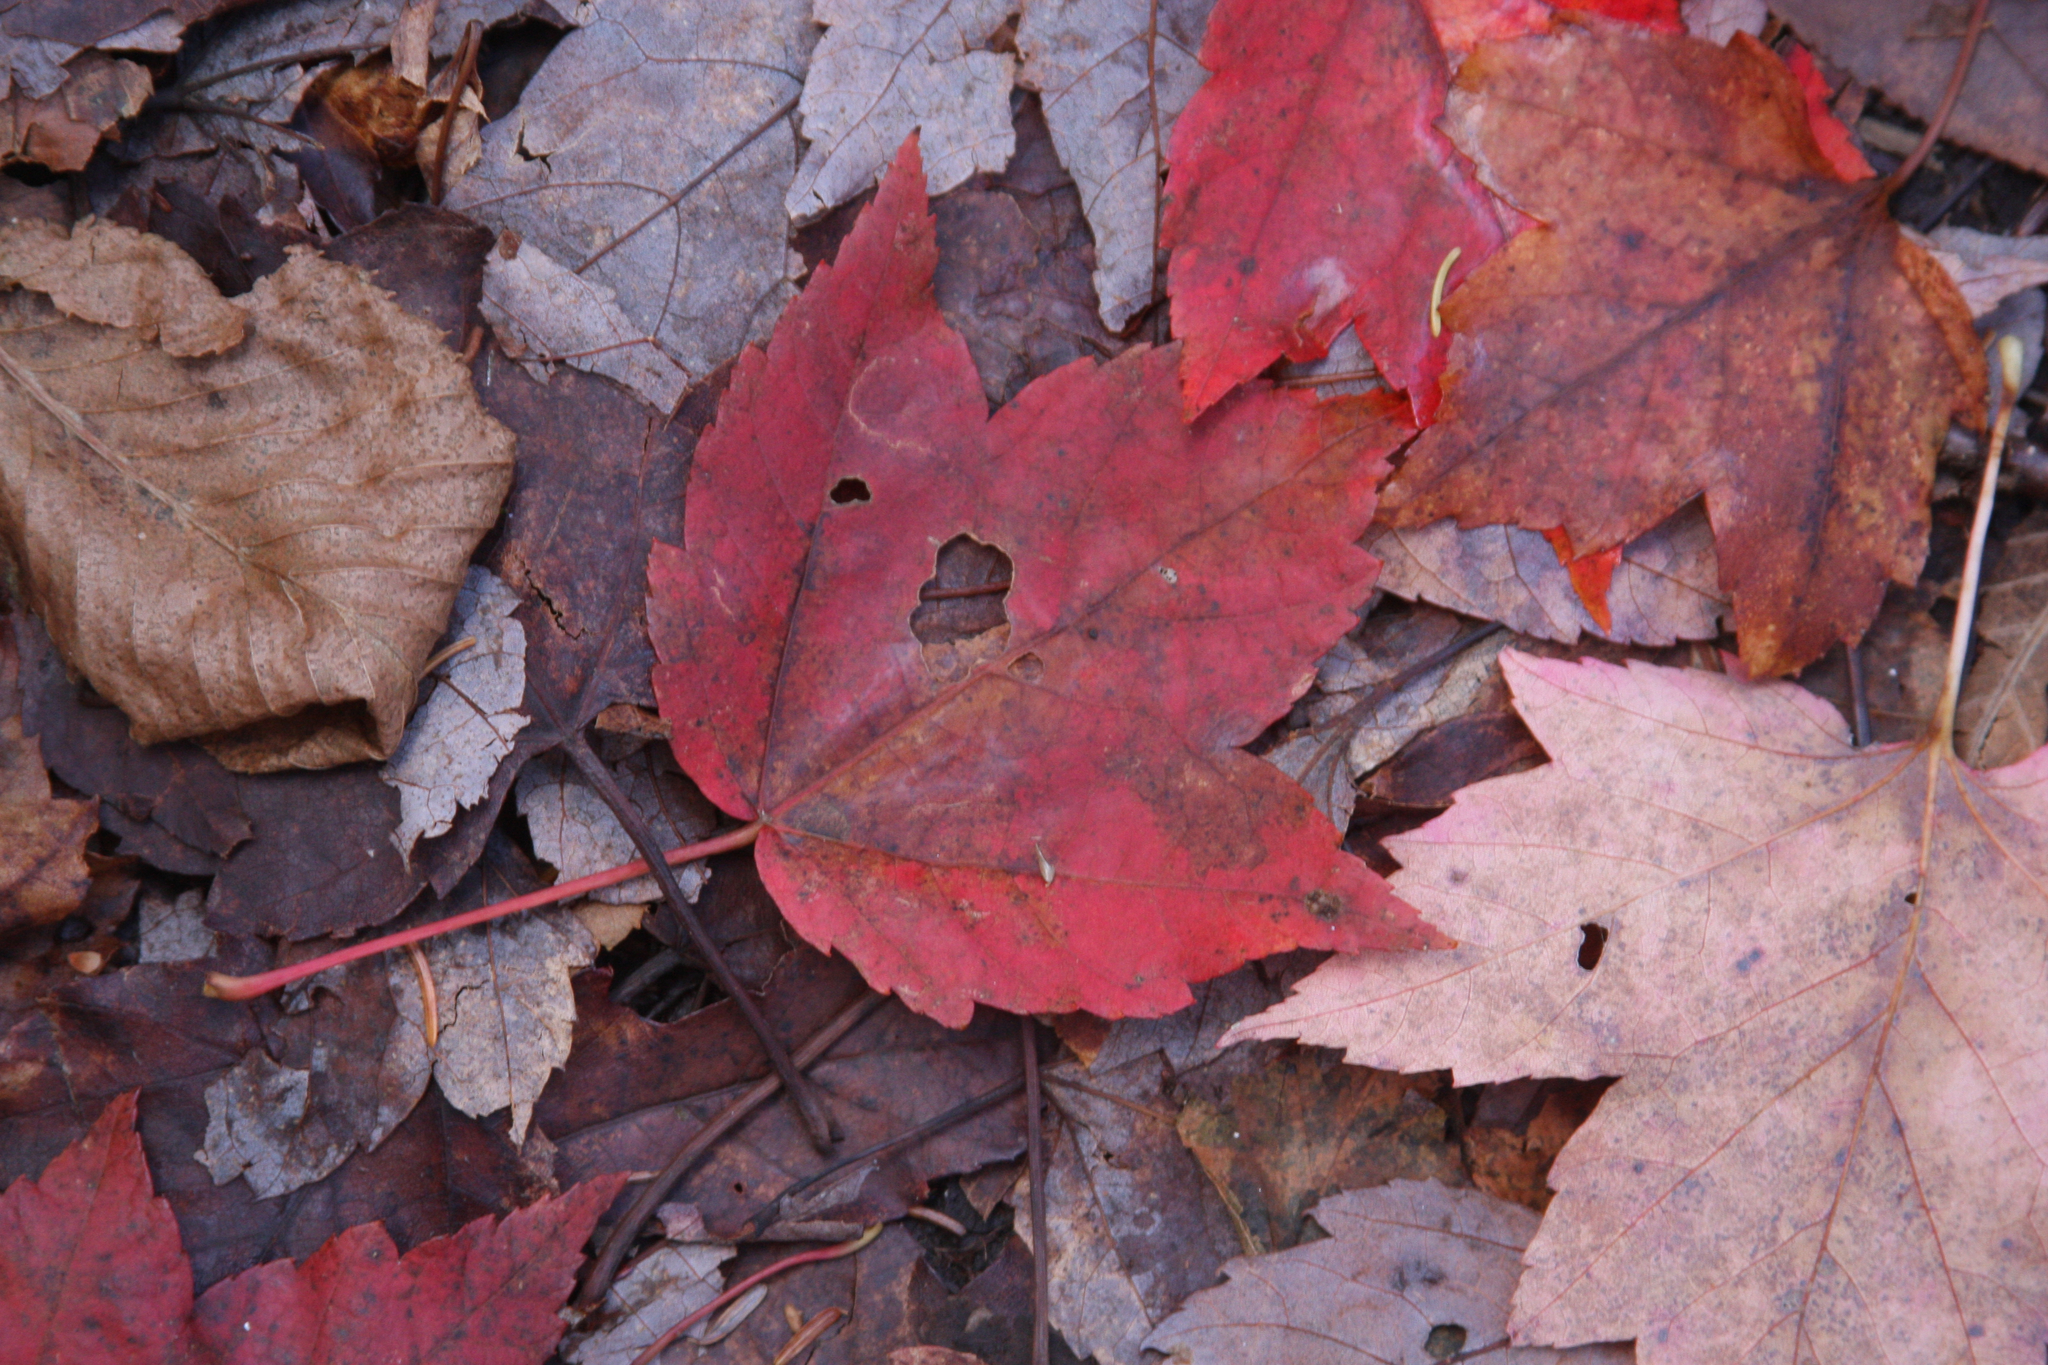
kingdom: Plantae
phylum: Tracheophyta
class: Magnoliopsida
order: Sapindales
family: Sapindaceae
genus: Acer
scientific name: Acer rubrum
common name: Red maple
